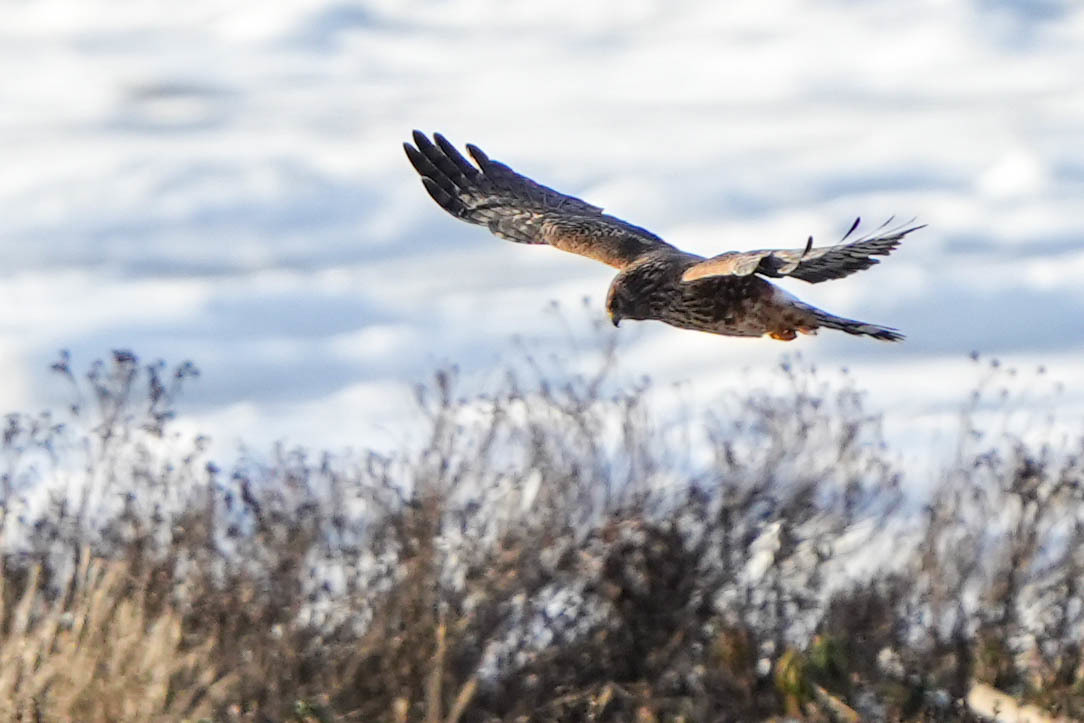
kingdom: Animalia
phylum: Chordata
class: Aves
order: Accipitriformes
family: Accipitridae
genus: Circus
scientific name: Circus cyaneus
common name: Hen harrier
